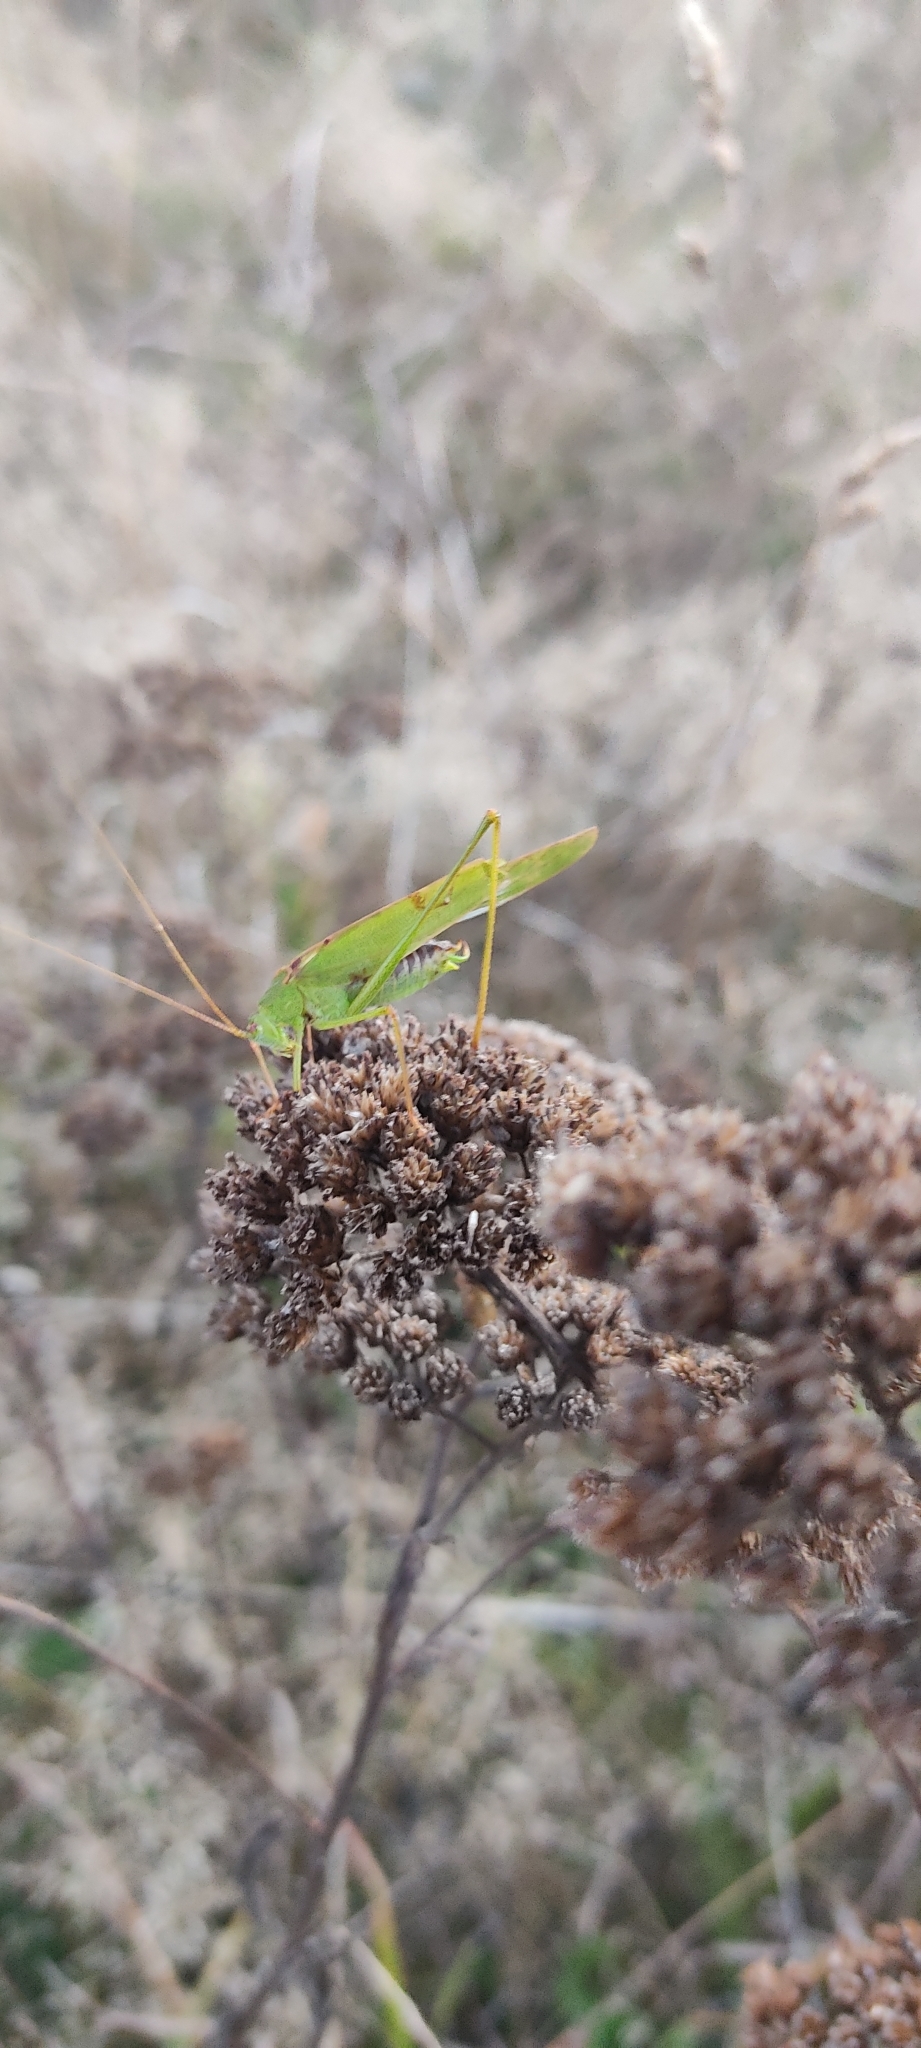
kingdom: Animalia
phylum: Arthropoda
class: Insecta
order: Orthoptera
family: Tettigoniidae
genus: Phaneroptera
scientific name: Phaneroptera falcata
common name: Sickle-bearing bush-cricket
